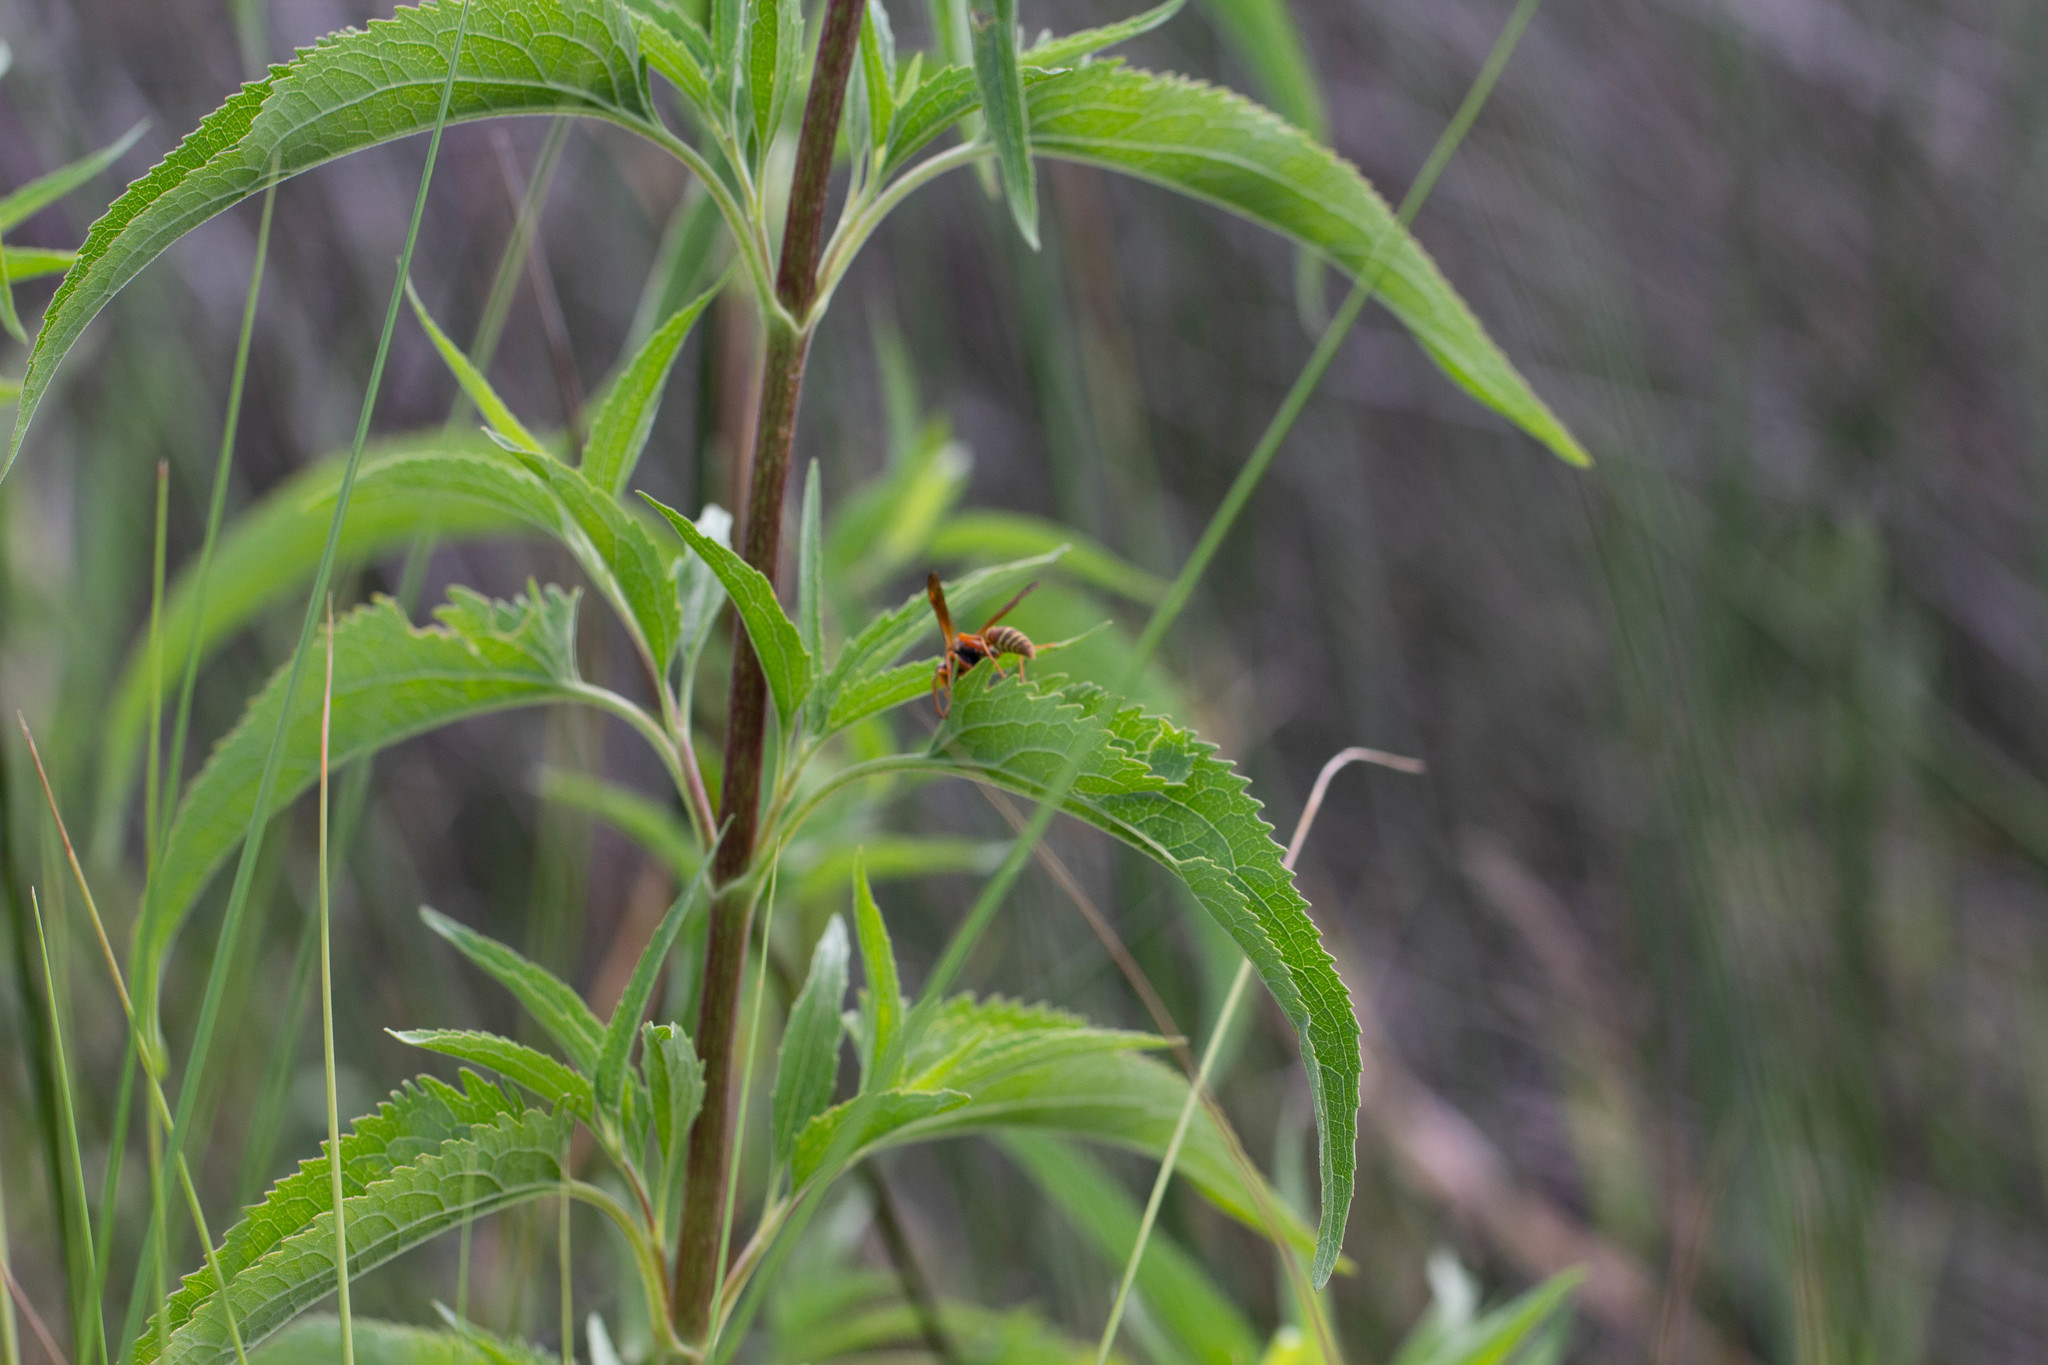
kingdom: Plantae
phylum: Tracheophyta
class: Magnoliopsida
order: Asterales
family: Asteraceae
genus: Eupatorium
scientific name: Eupatorium serotinum
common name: Late boneset
